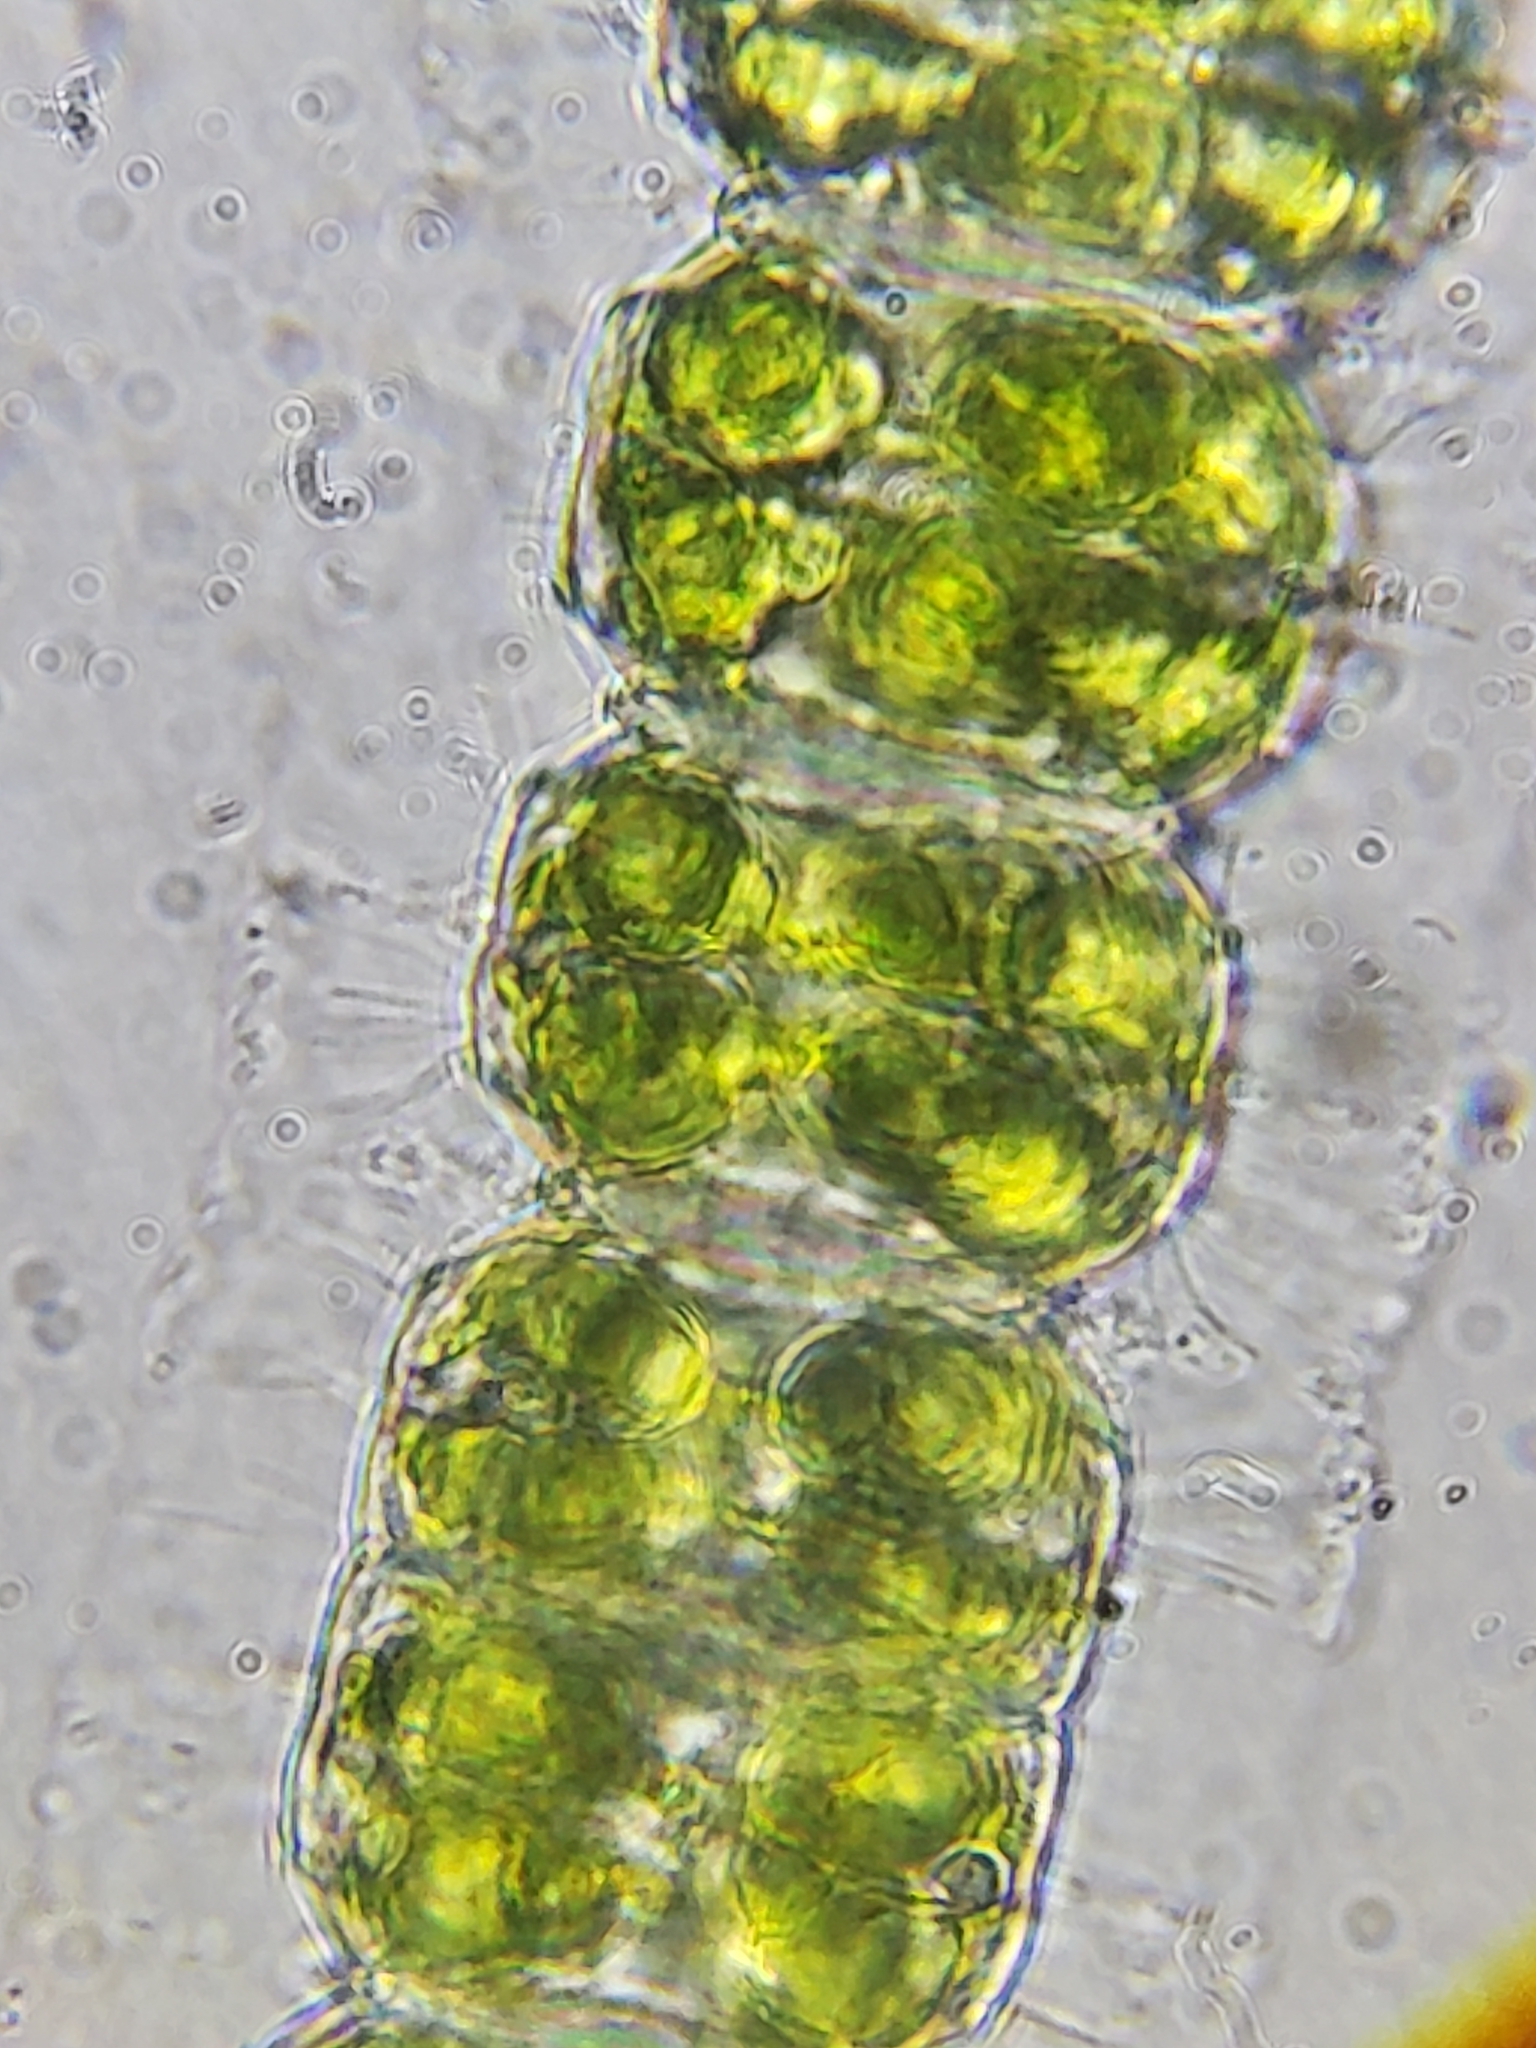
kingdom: Plantae
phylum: Charophyta
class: Conjugatophyceae
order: Desmidiales
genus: Desmidium
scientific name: Desmidium grevillei
